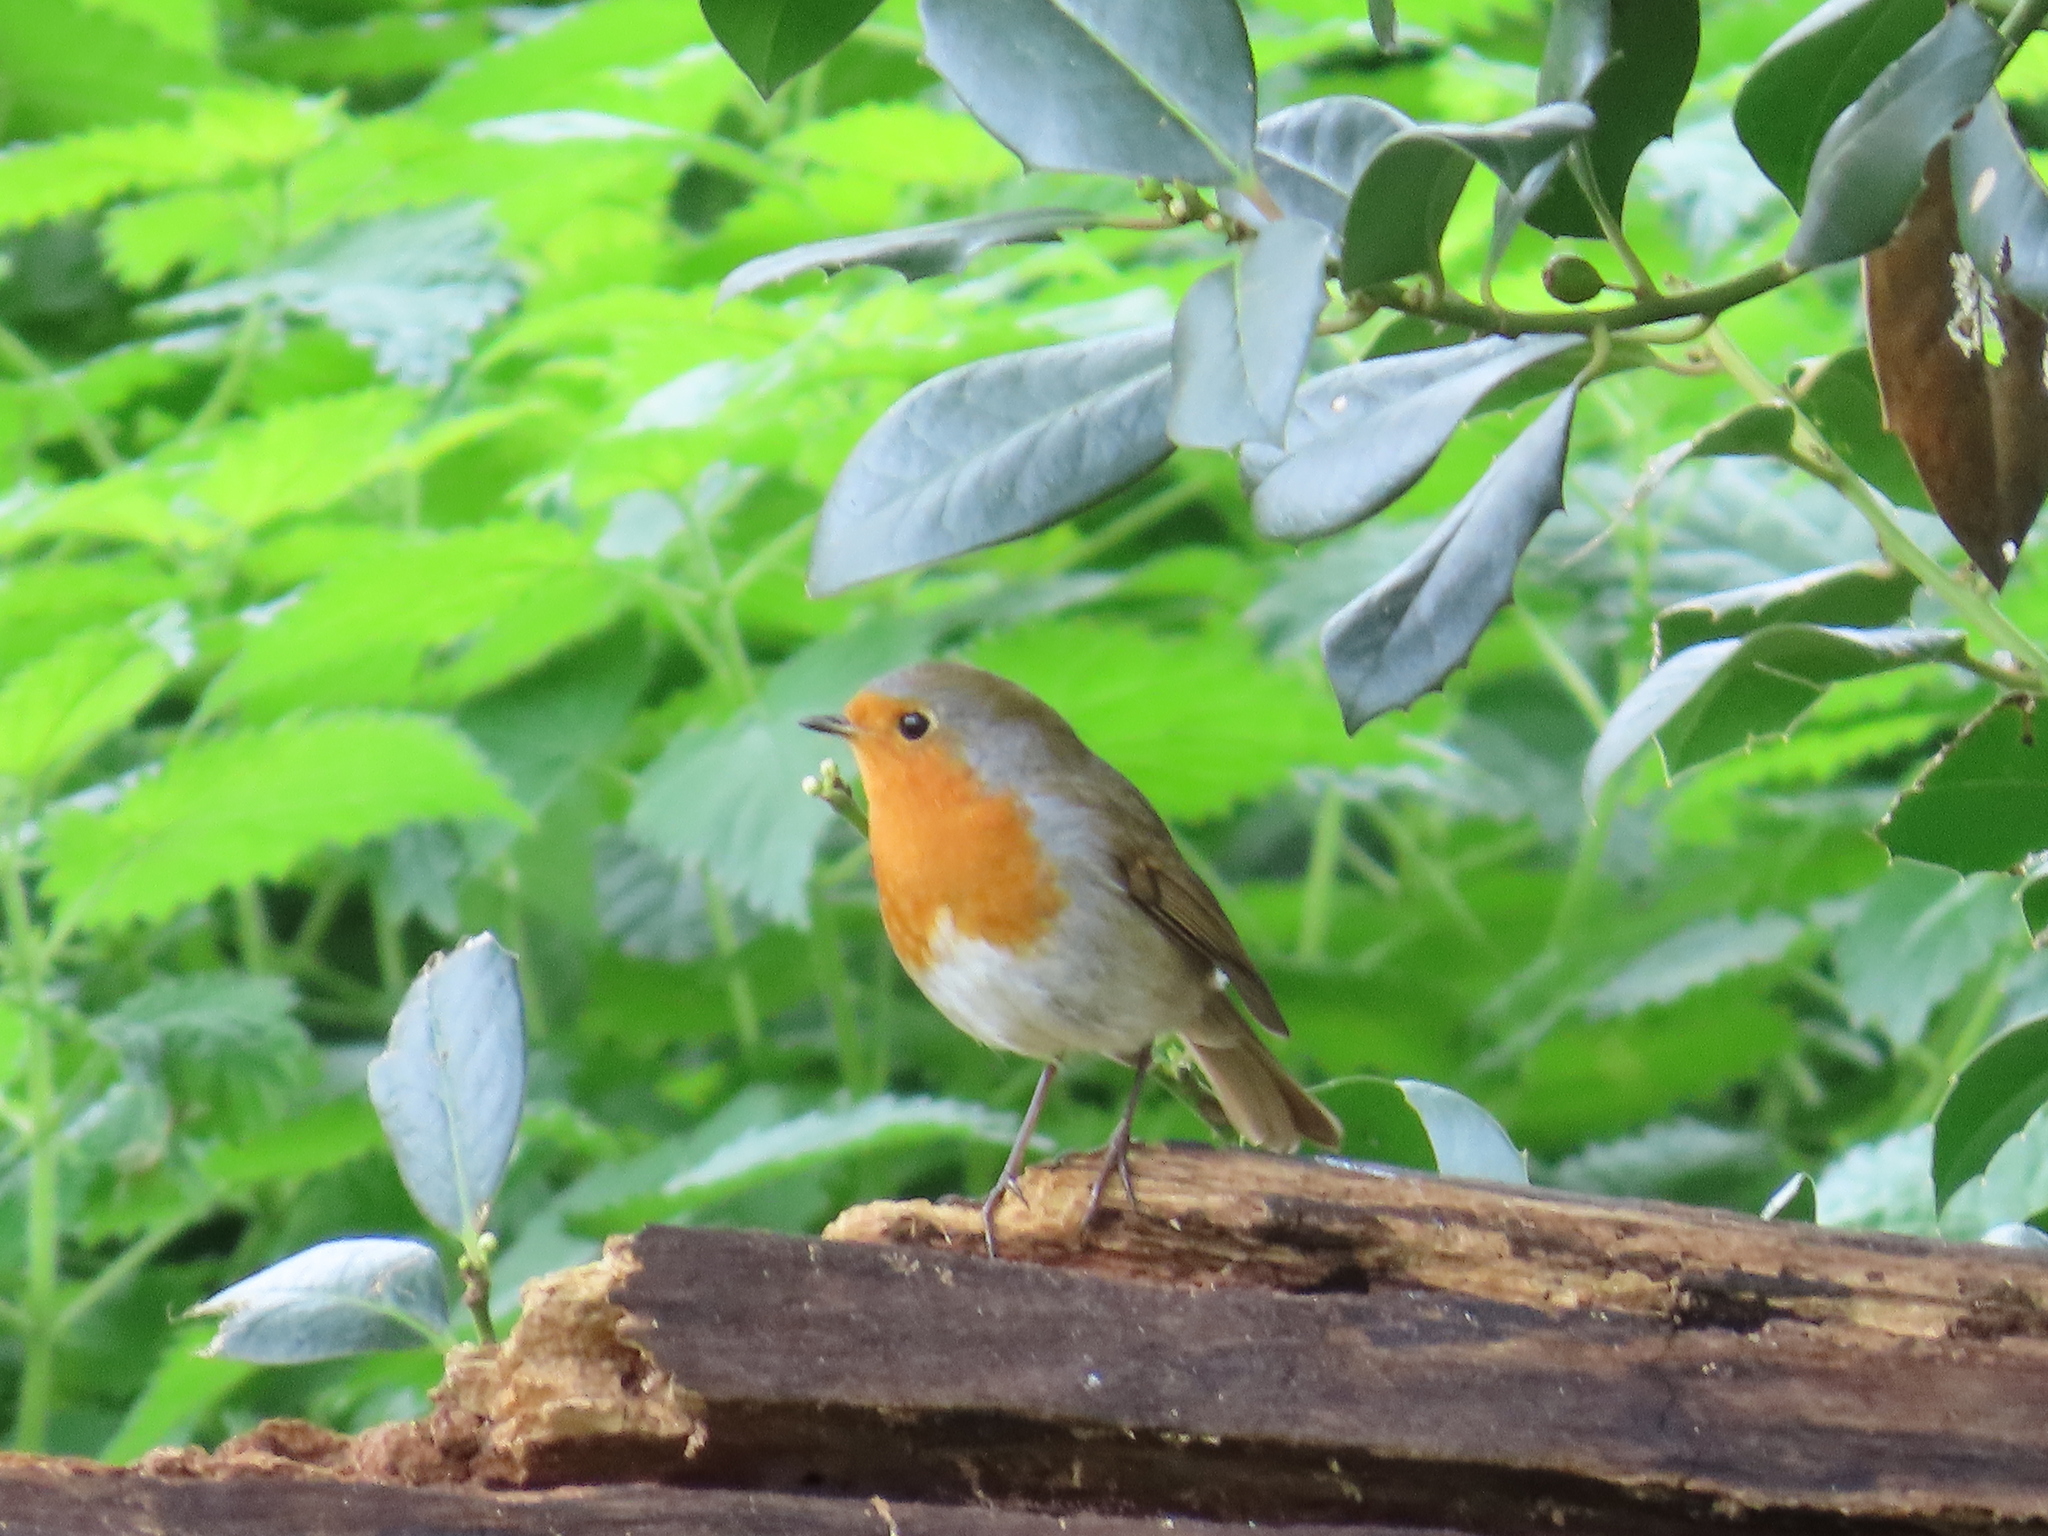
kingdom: Animalia
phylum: Chordata
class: Aves
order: Passeriformes
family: Muscicapidae
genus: Erithacus
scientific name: Erithacus rubecula
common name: European robin
